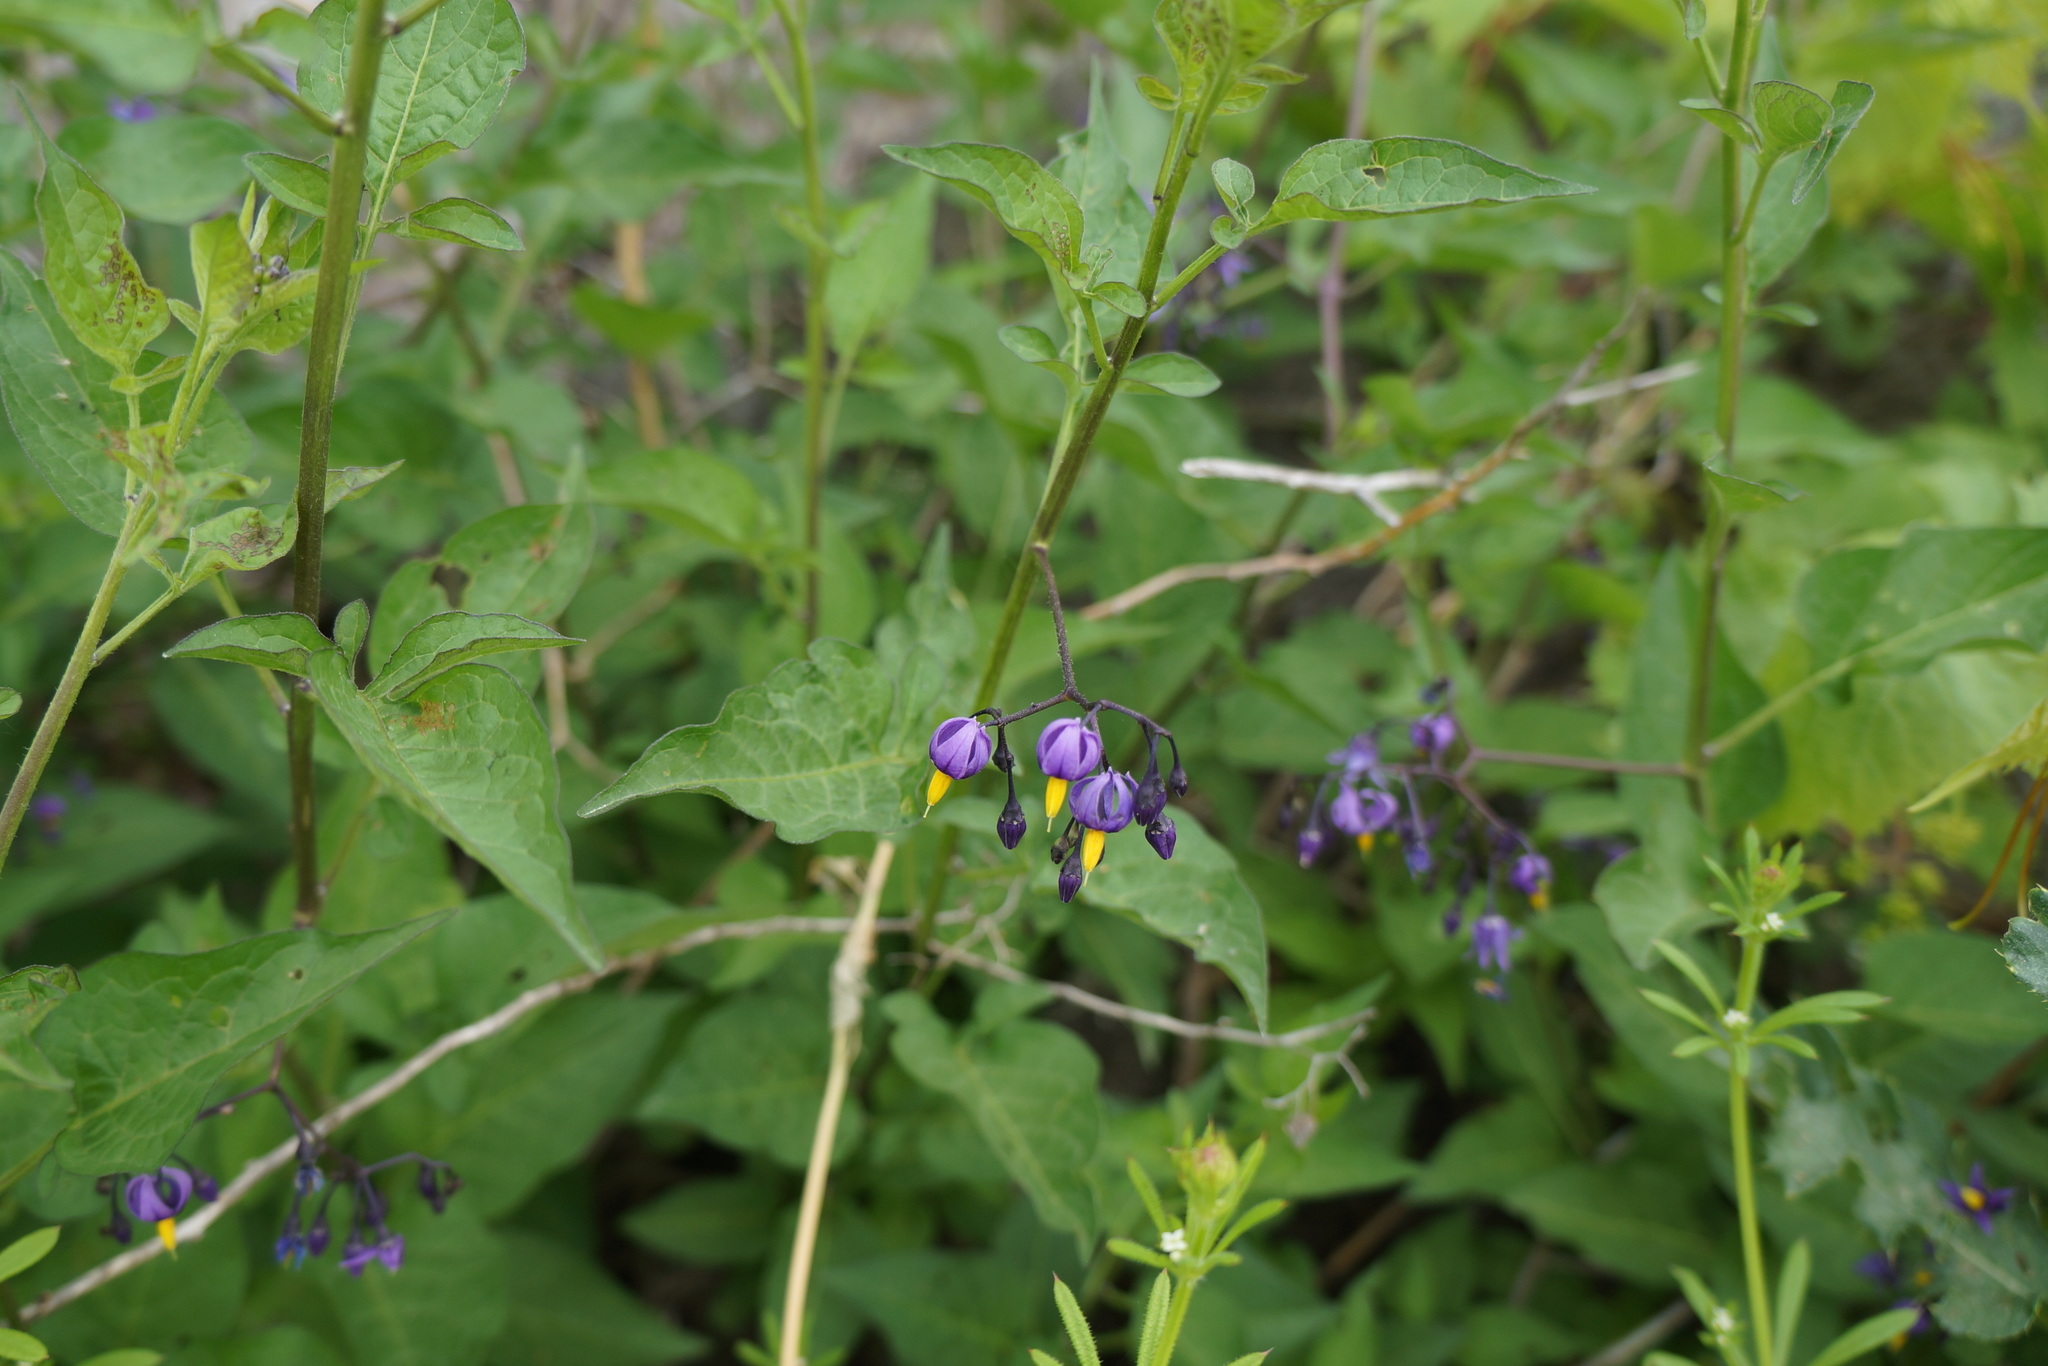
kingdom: Plantae
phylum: Tracheophyta
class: Magnoliopsida
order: Solanales
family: Solanaceae
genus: Solanum
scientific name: Solanum dulcamara
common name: Climbing nightshade
